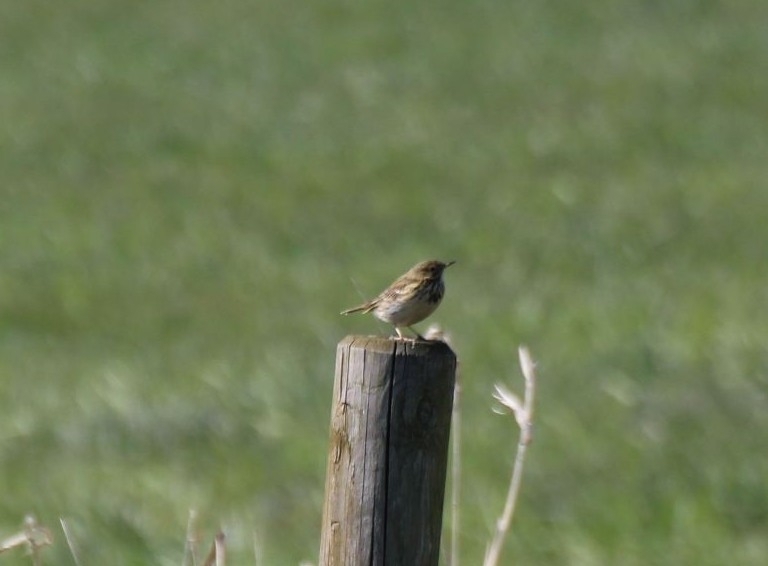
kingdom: Animalia
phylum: Chordata
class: Aves
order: Passeriformes
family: Muscicapidae
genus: Saxicola
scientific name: Saxicola rubicola
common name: European stonechat
